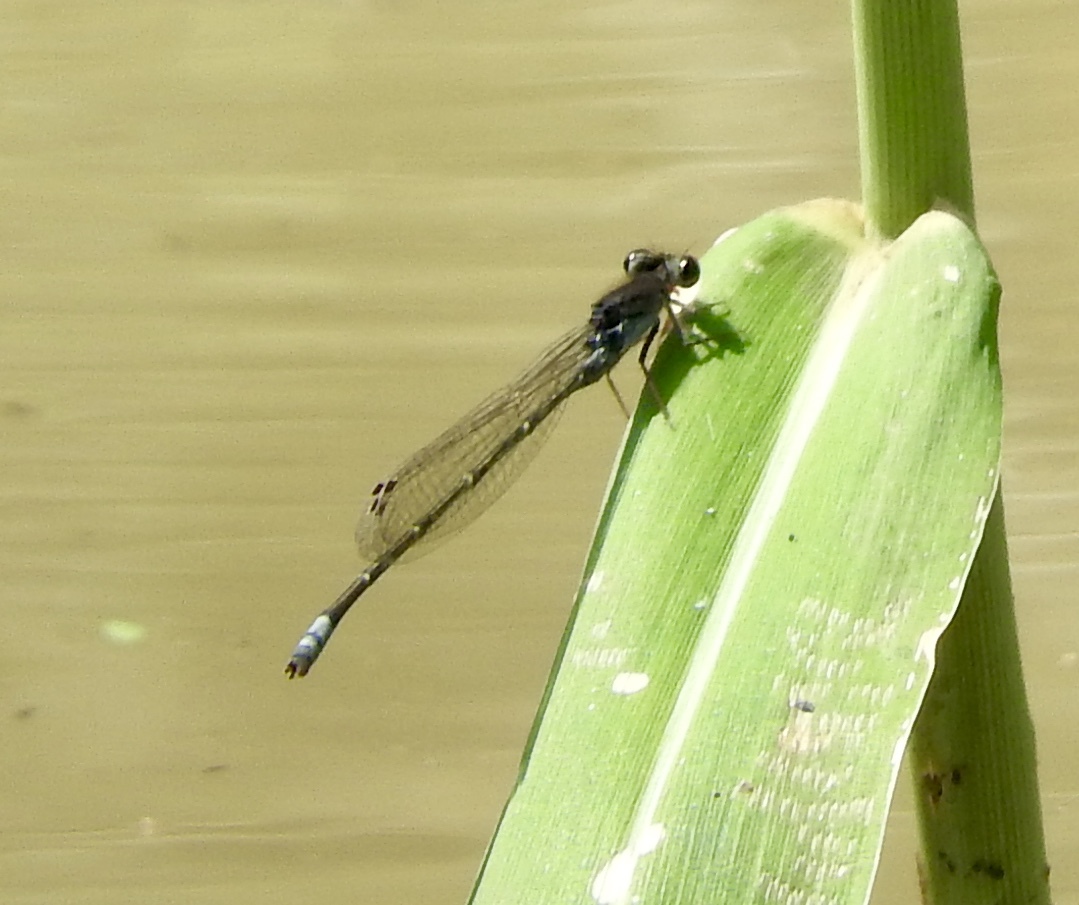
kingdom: Animalia
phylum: Arthropoda
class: Insecta
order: Odonata
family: Coenagrionidae
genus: Pseudagrion
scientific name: Pseudagrion commoniae
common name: Black sprite
